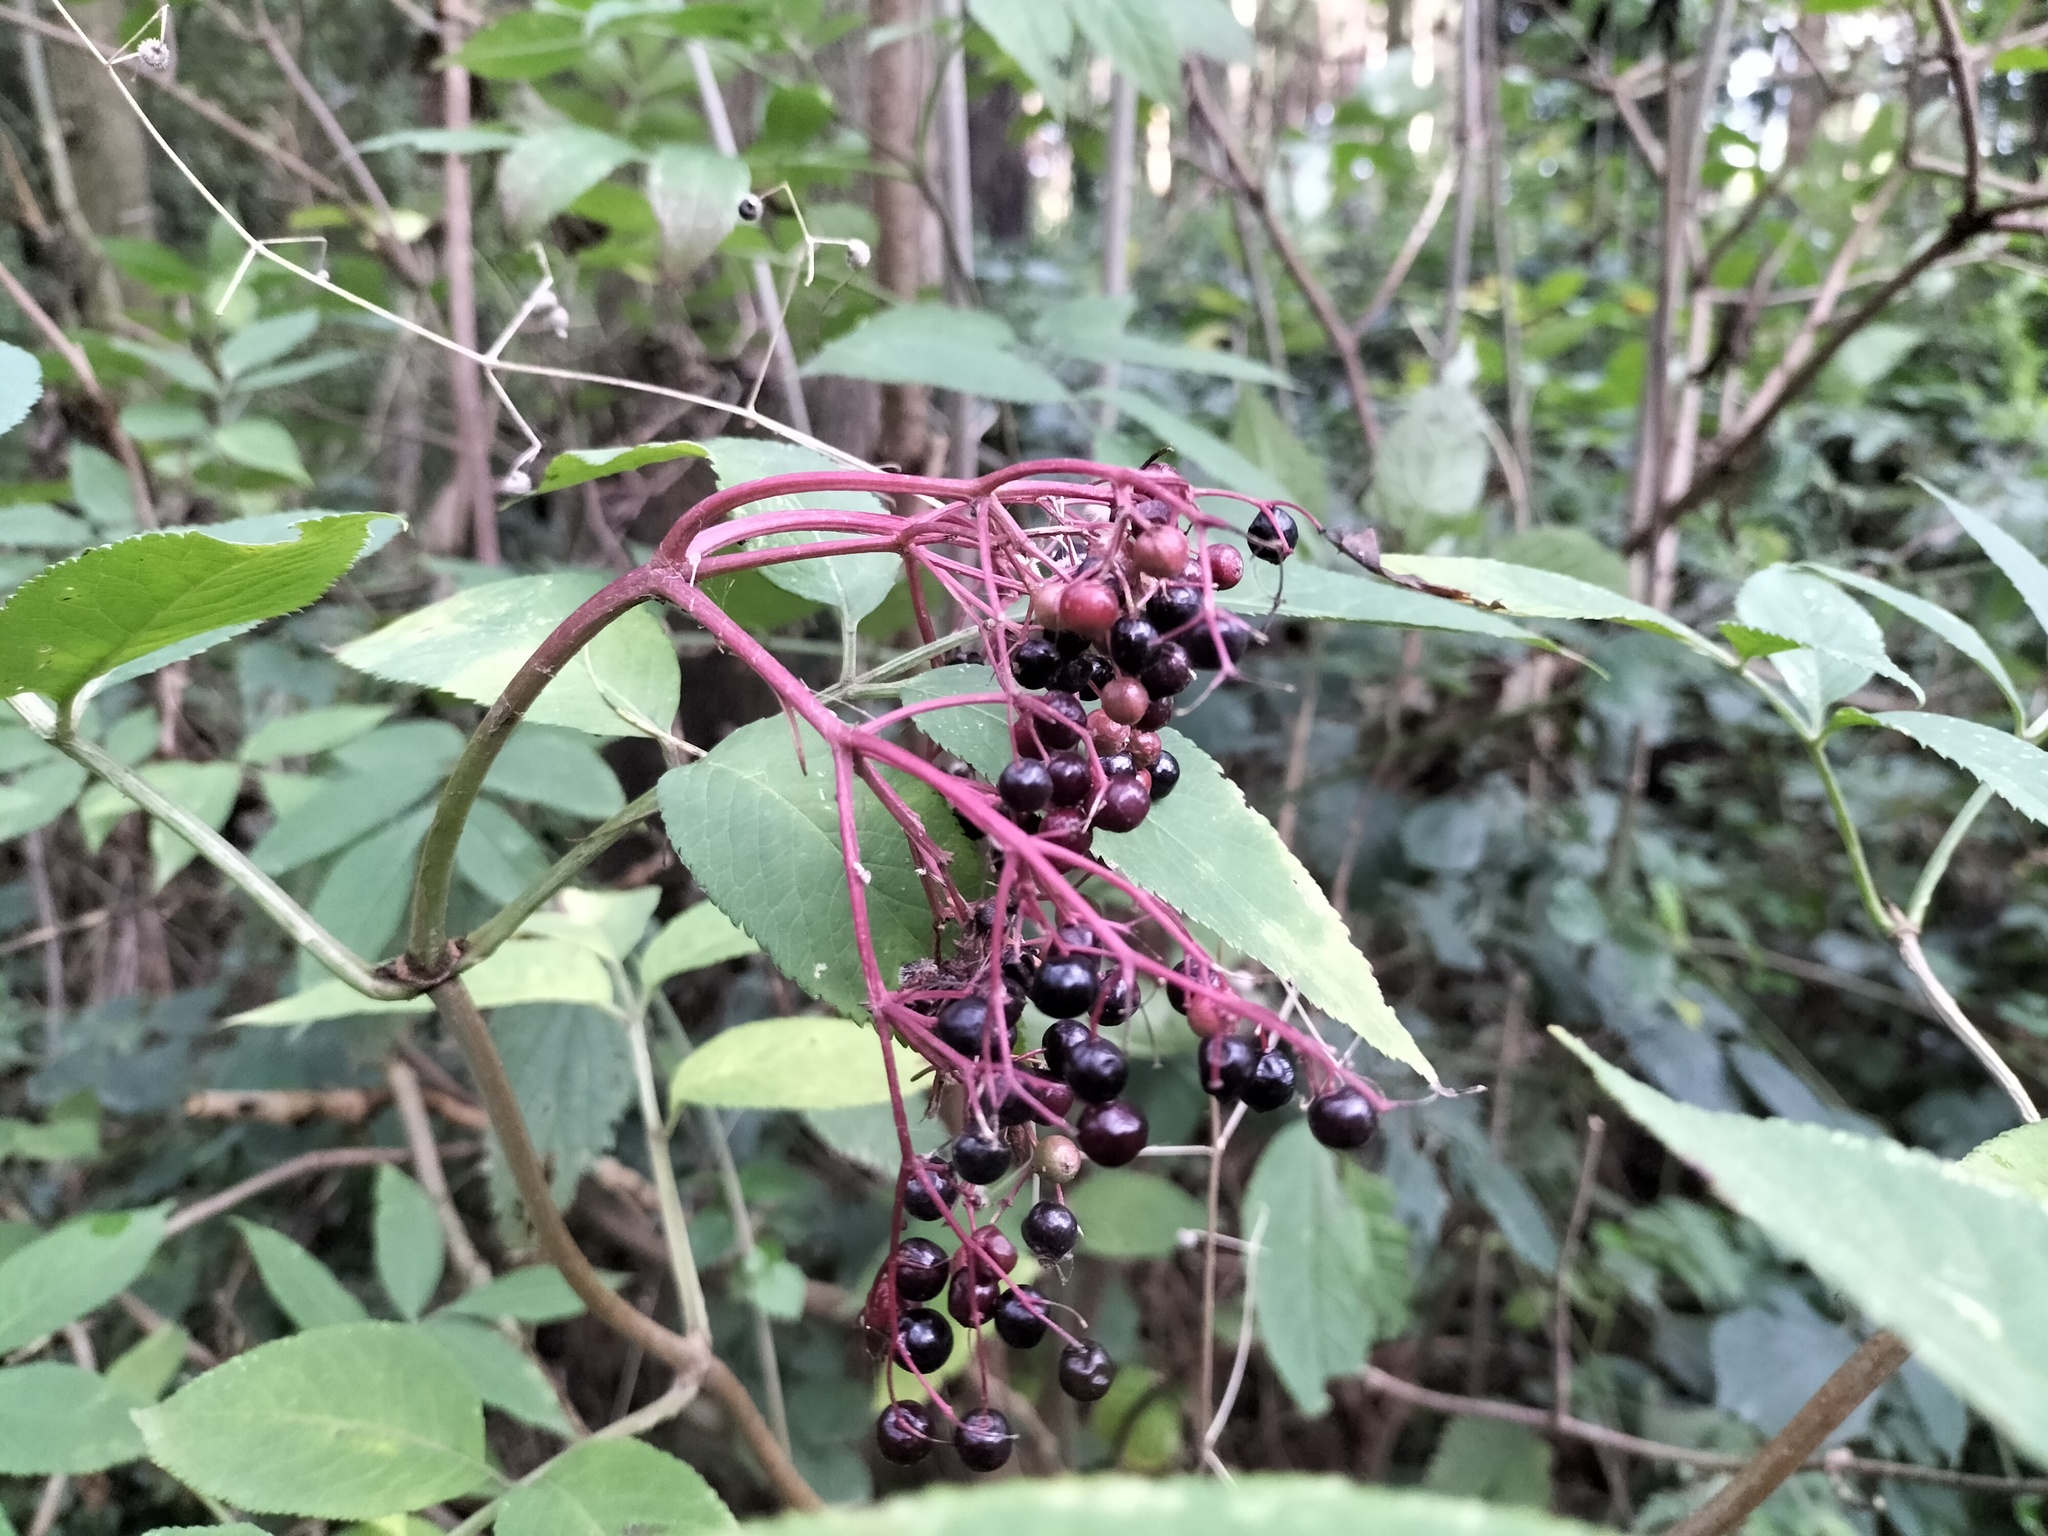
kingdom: Plantae
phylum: Tracheophyta
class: Magnoliopsida
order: Dipsacales
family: Viburnaceae
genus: Sambucus
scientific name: Sambucus nigra
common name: Elder
